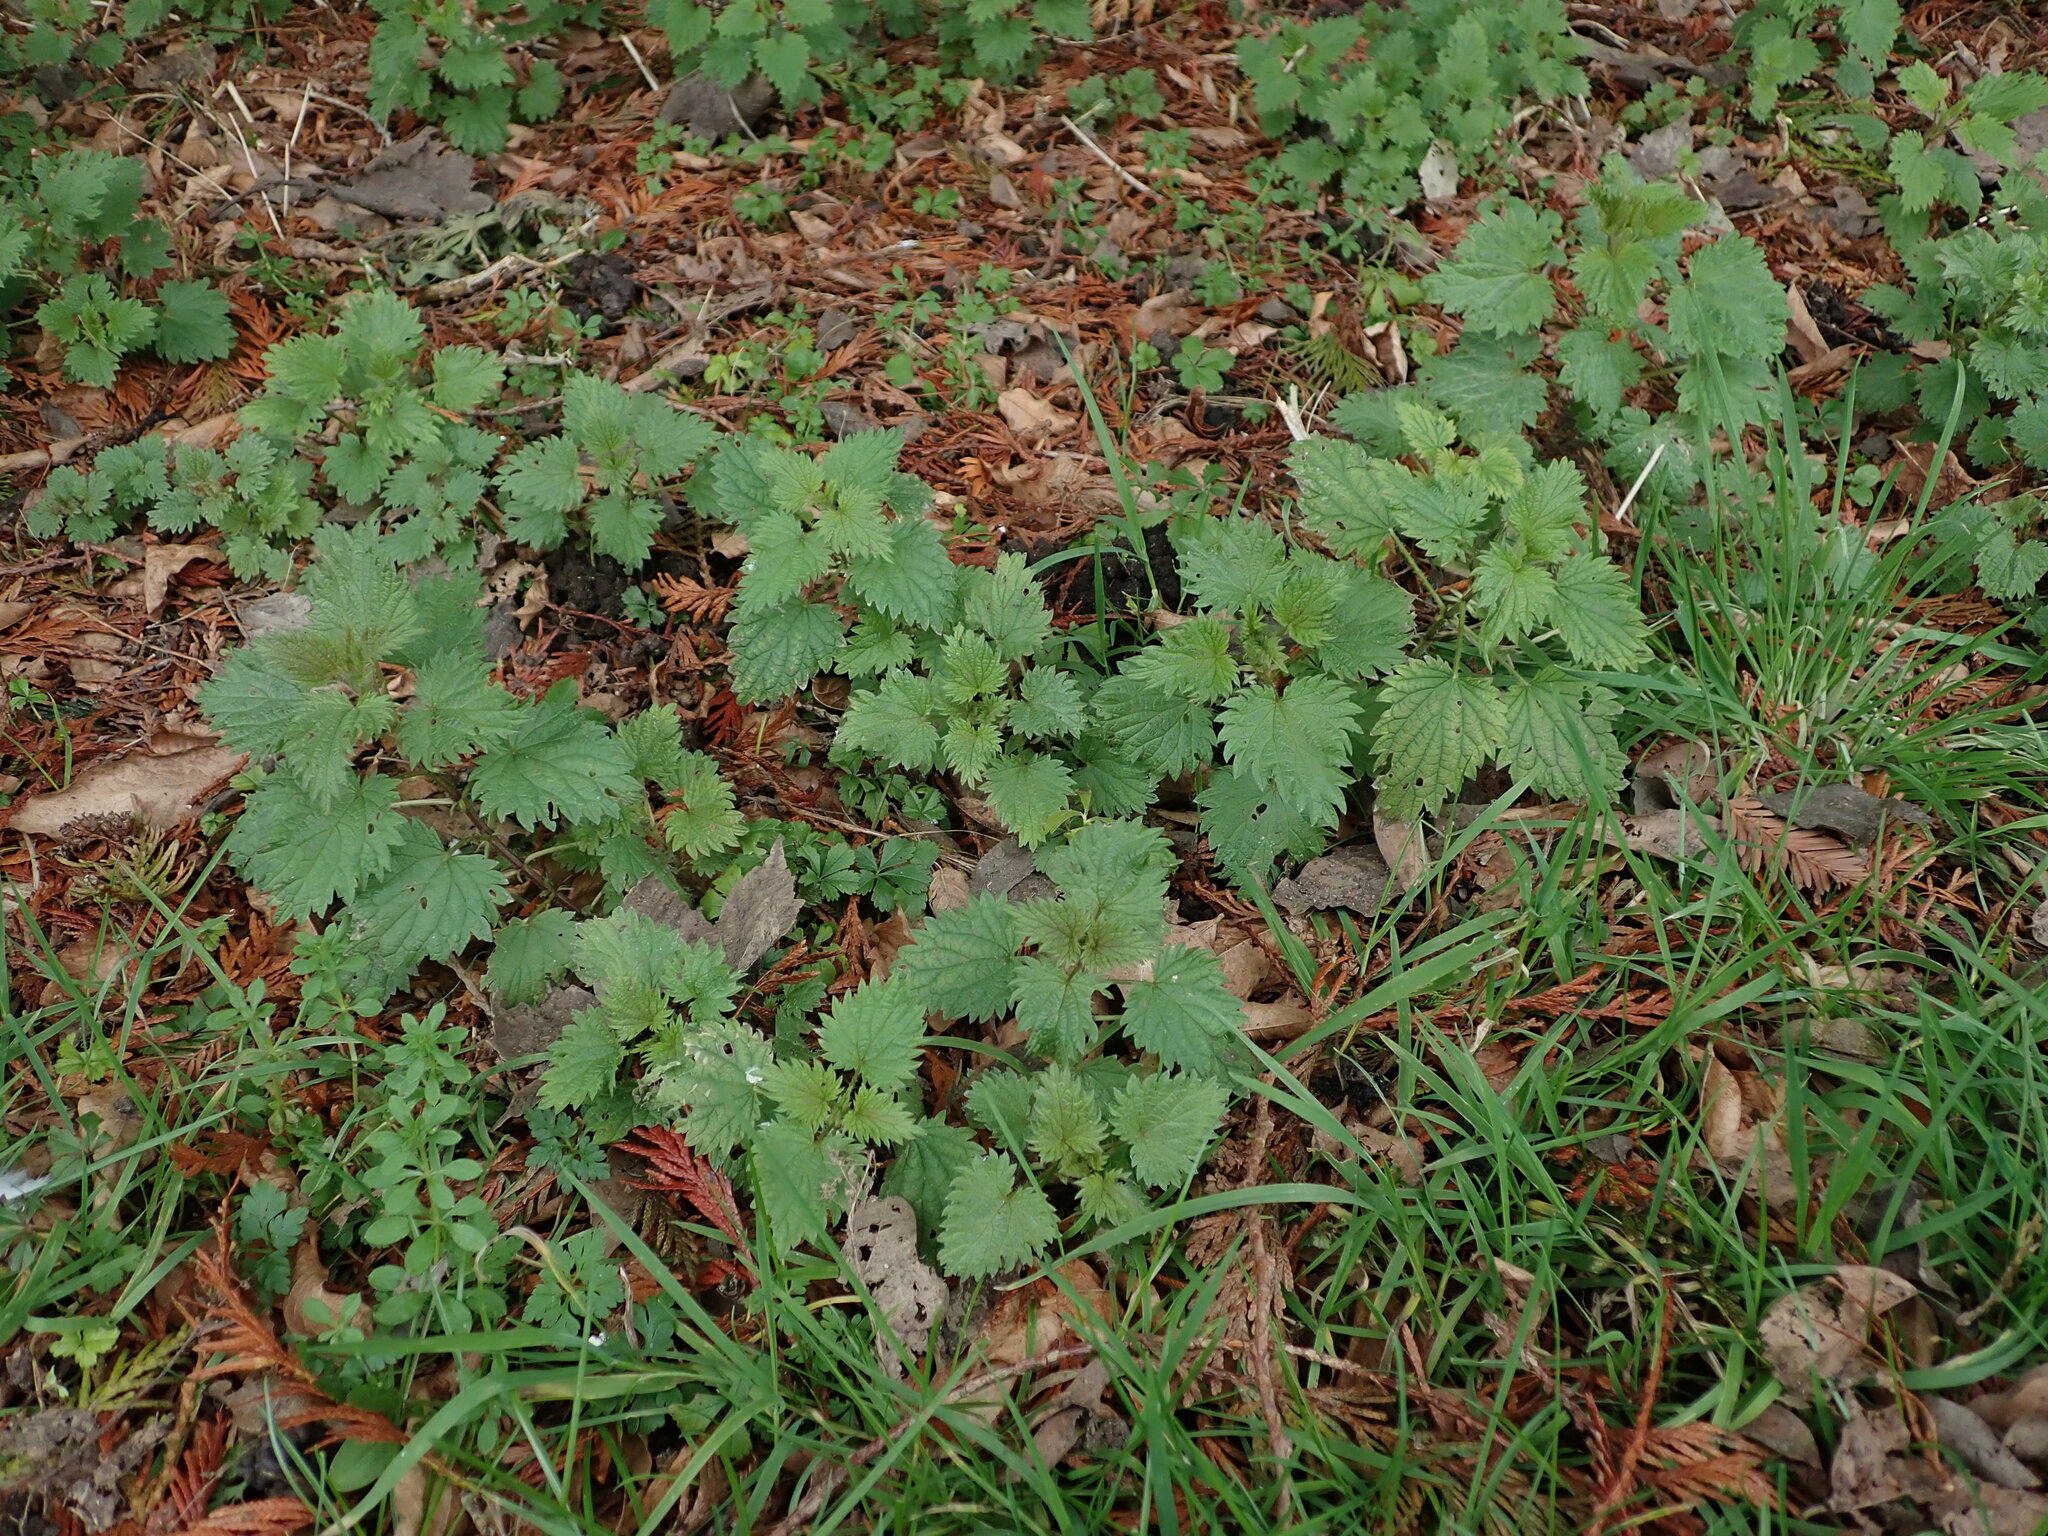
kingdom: Plantae
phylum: Tracheophyta
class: Magnoliopsida
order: Rosales
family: Urticaceae
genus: Urtica
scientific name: Urtica dioica
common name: Common nettle
